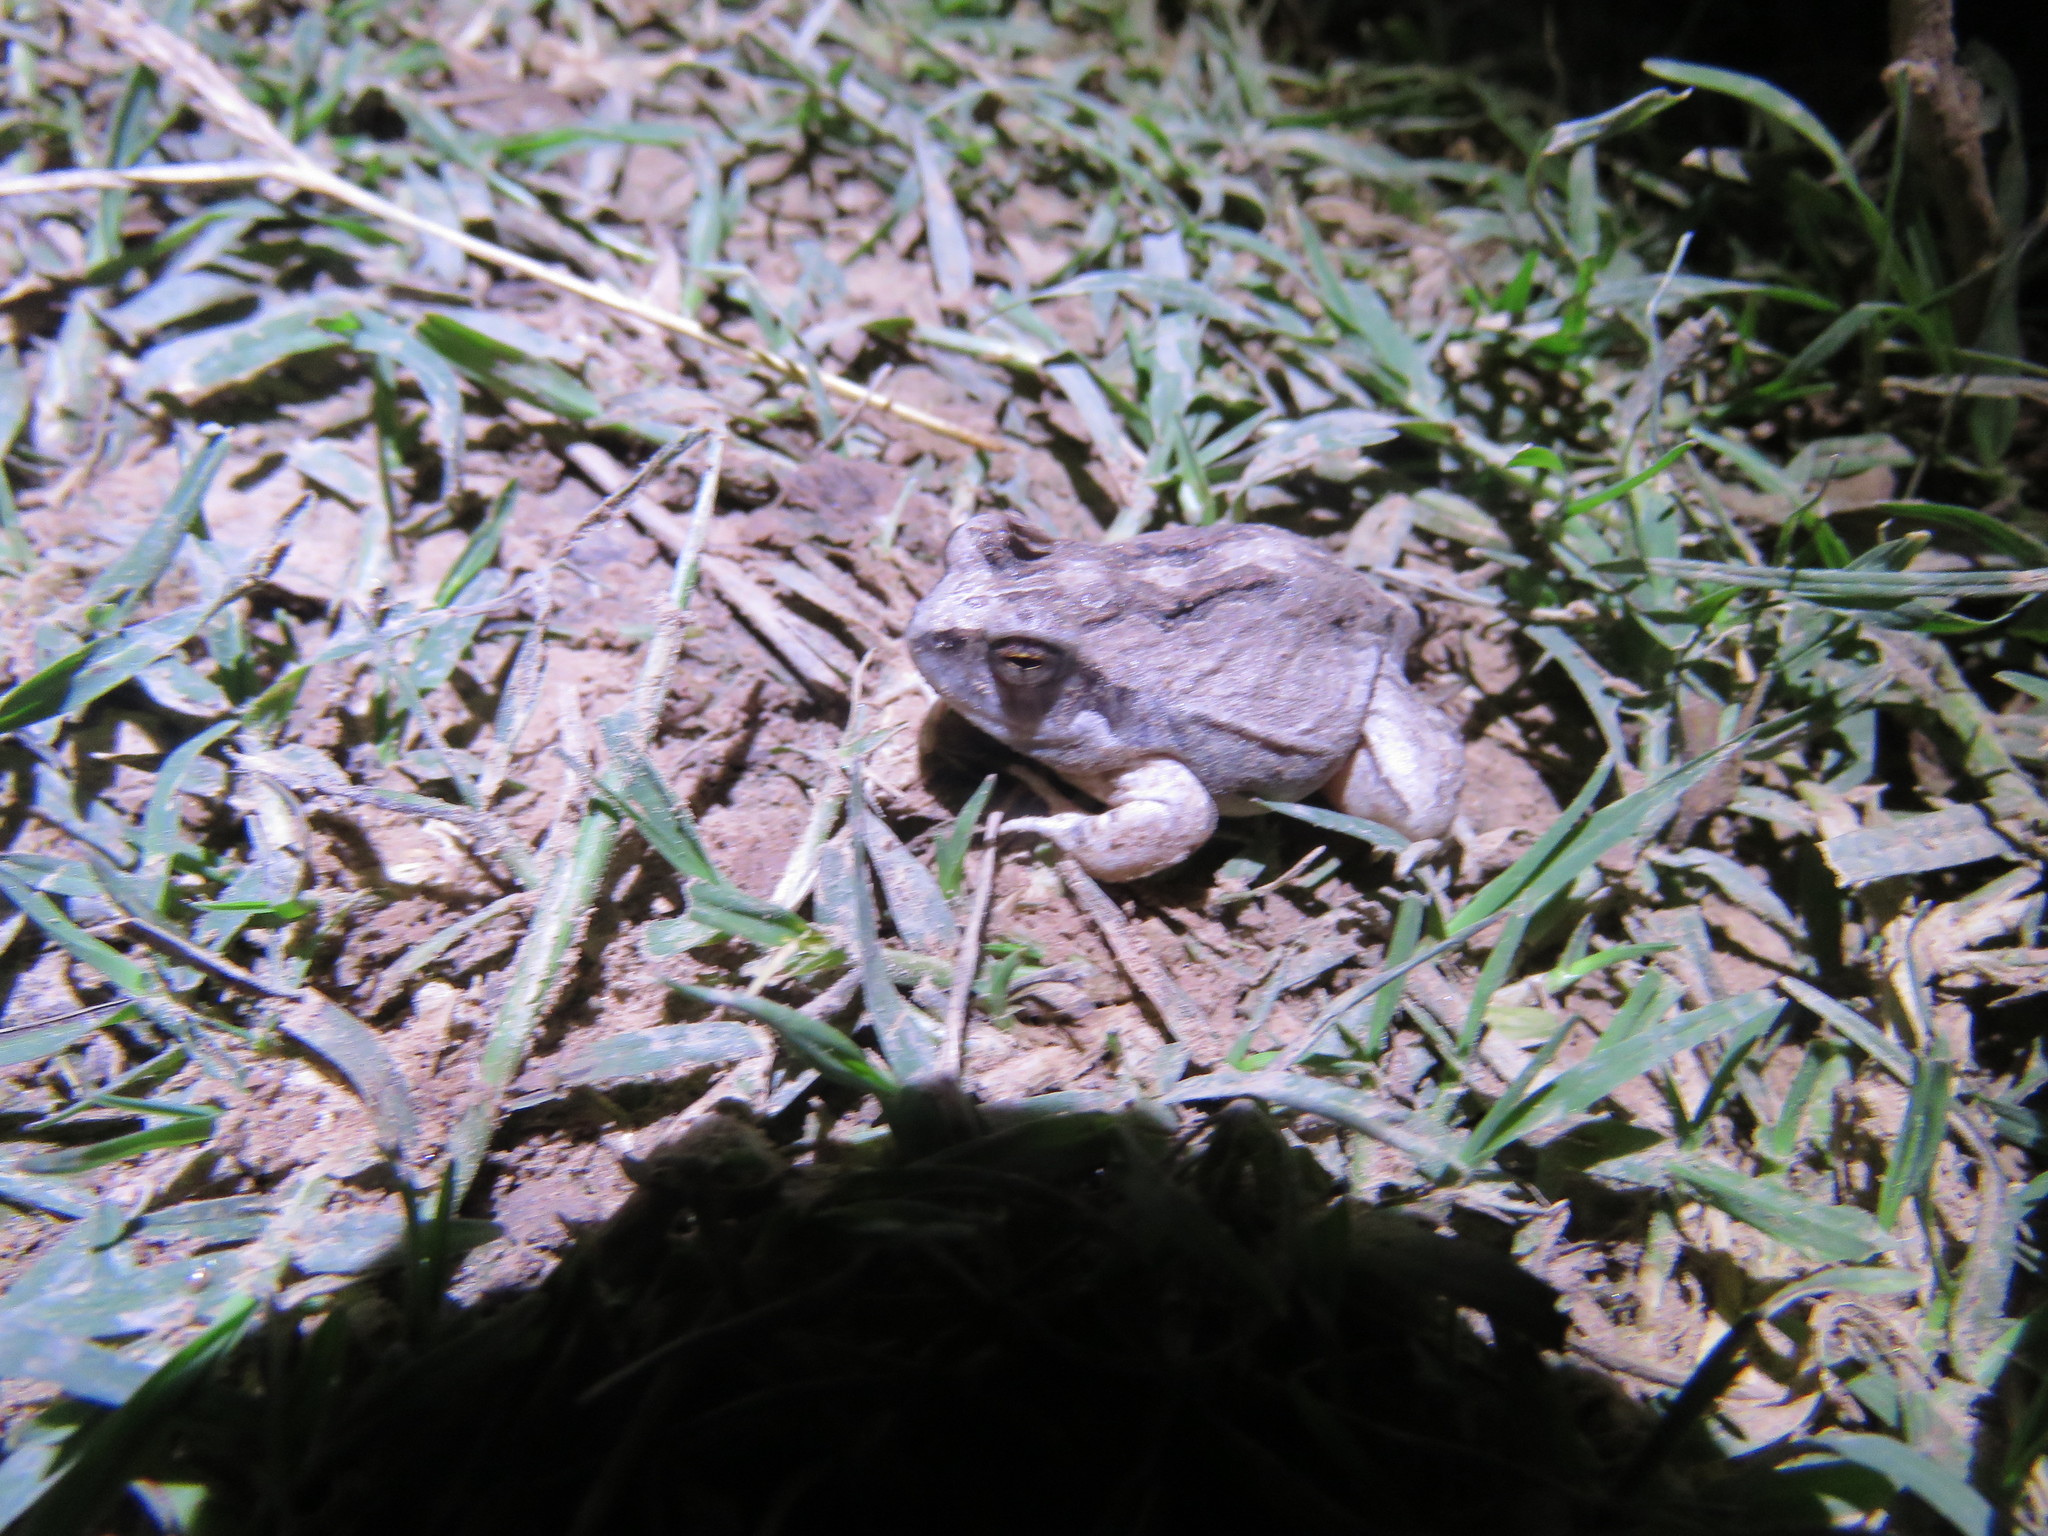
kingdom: Animalia
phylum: Chordata
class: Amphibia
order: Anura
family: Leptodactylidae
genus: Physalaemus
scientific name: Physalaemus albonotatus
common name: Menwig frog
